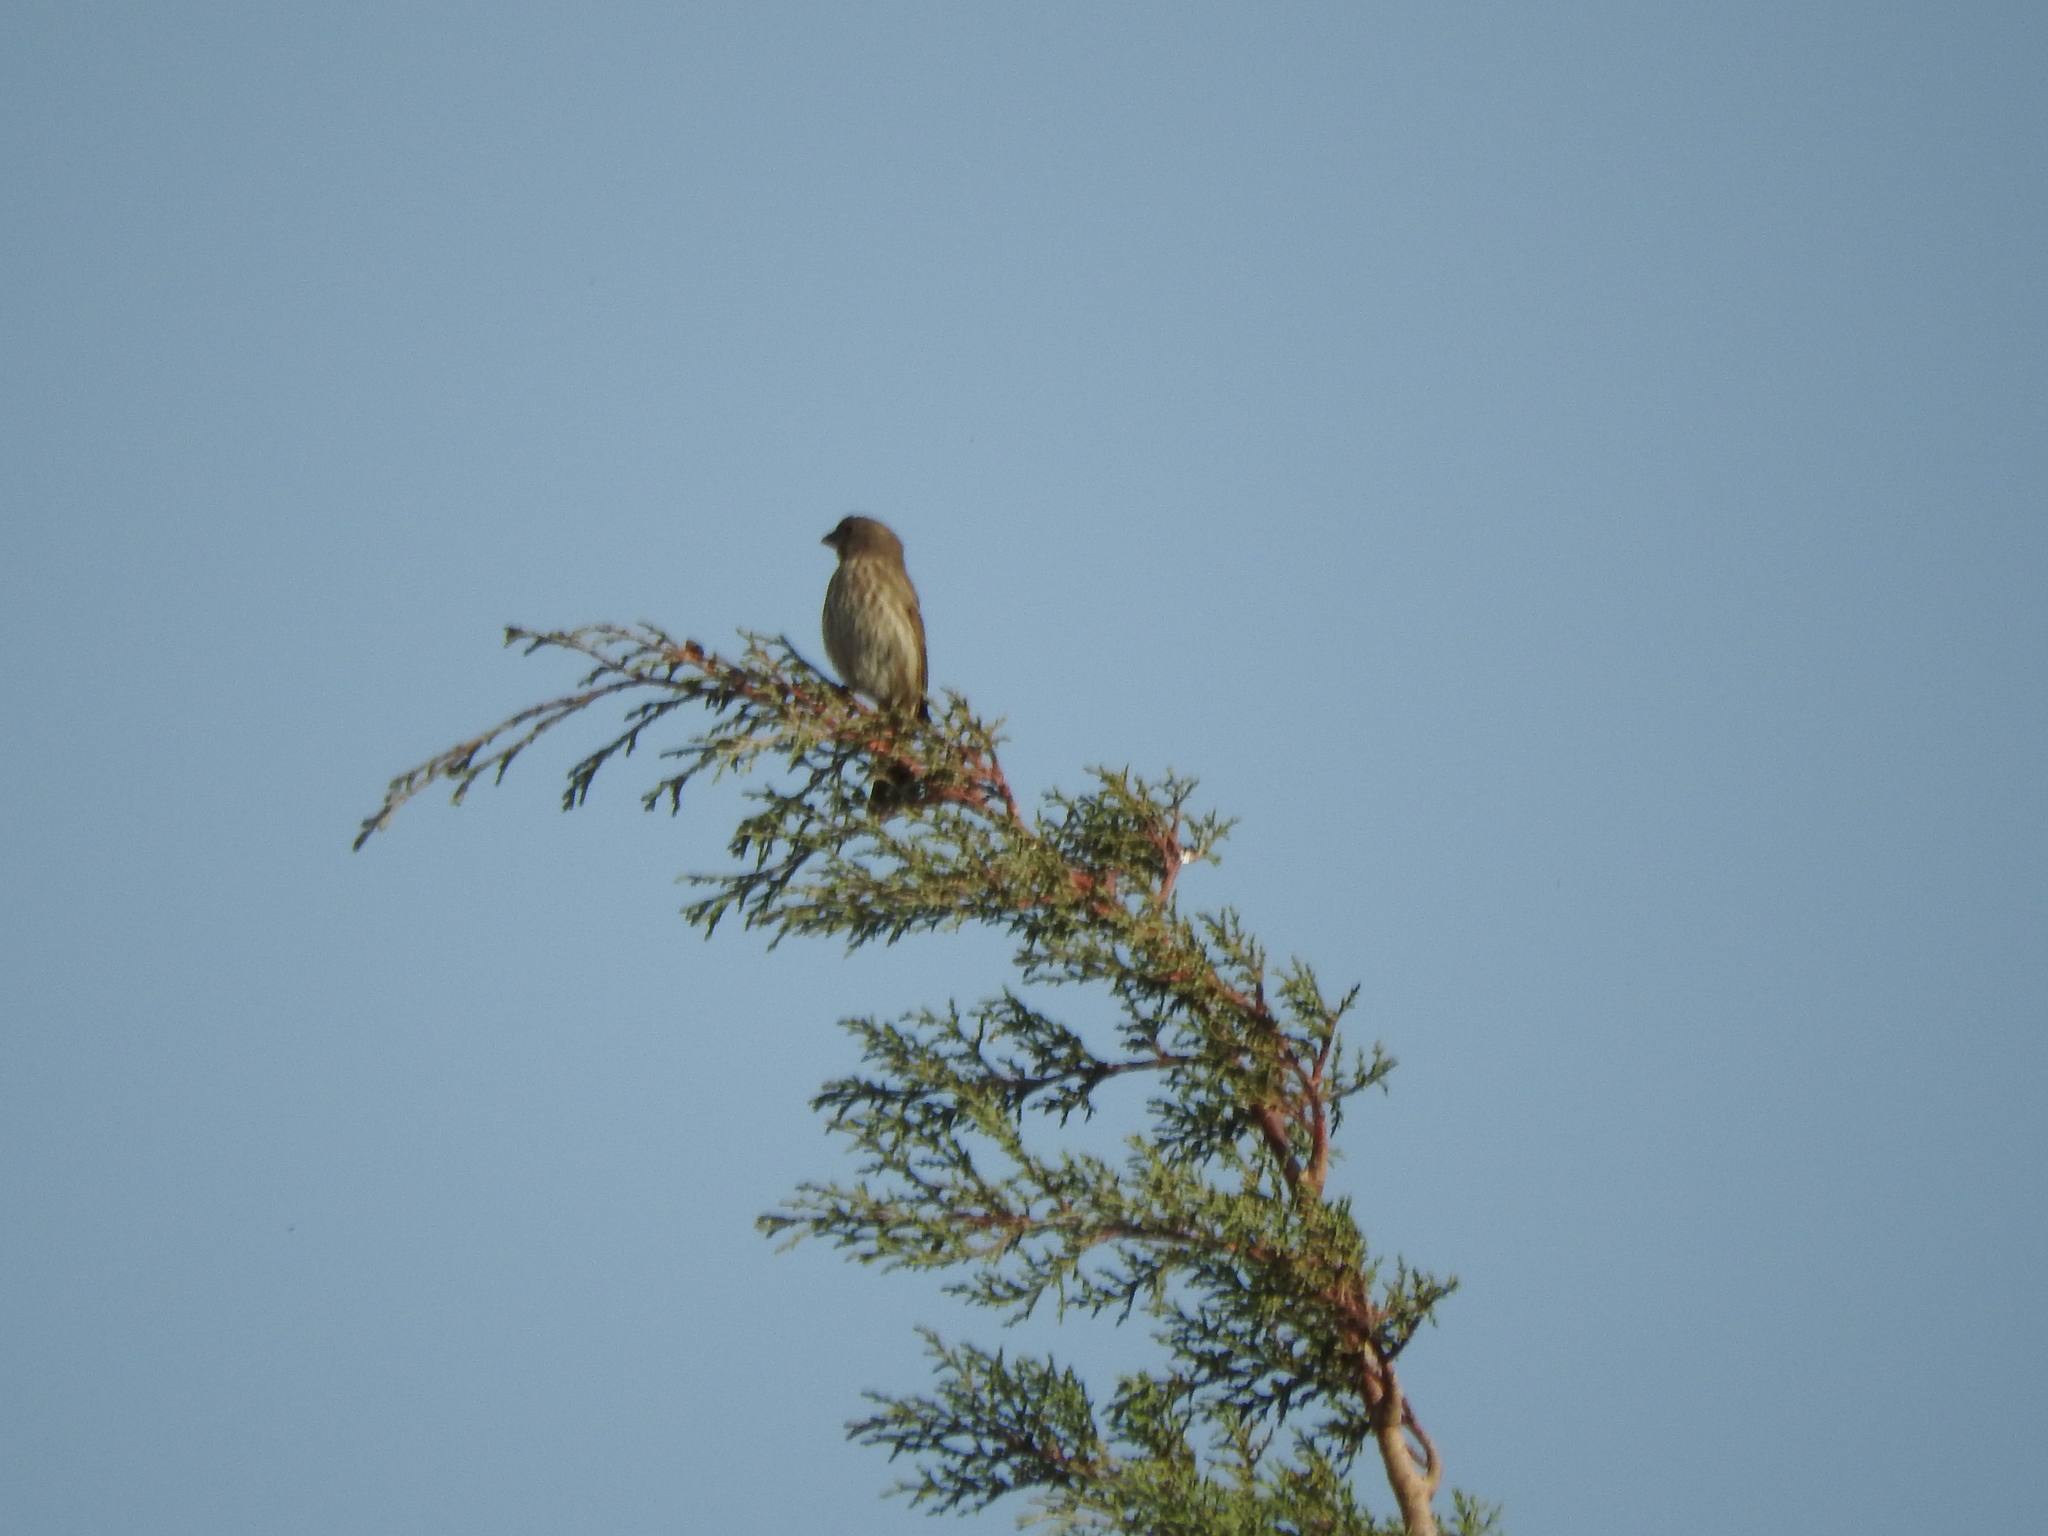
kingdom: Animalia
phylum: Chordata
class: Aves
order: Passeriformes
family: Fringillidae
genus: Haemorhous
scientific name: Haemorhous mexicanus
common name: House finch
